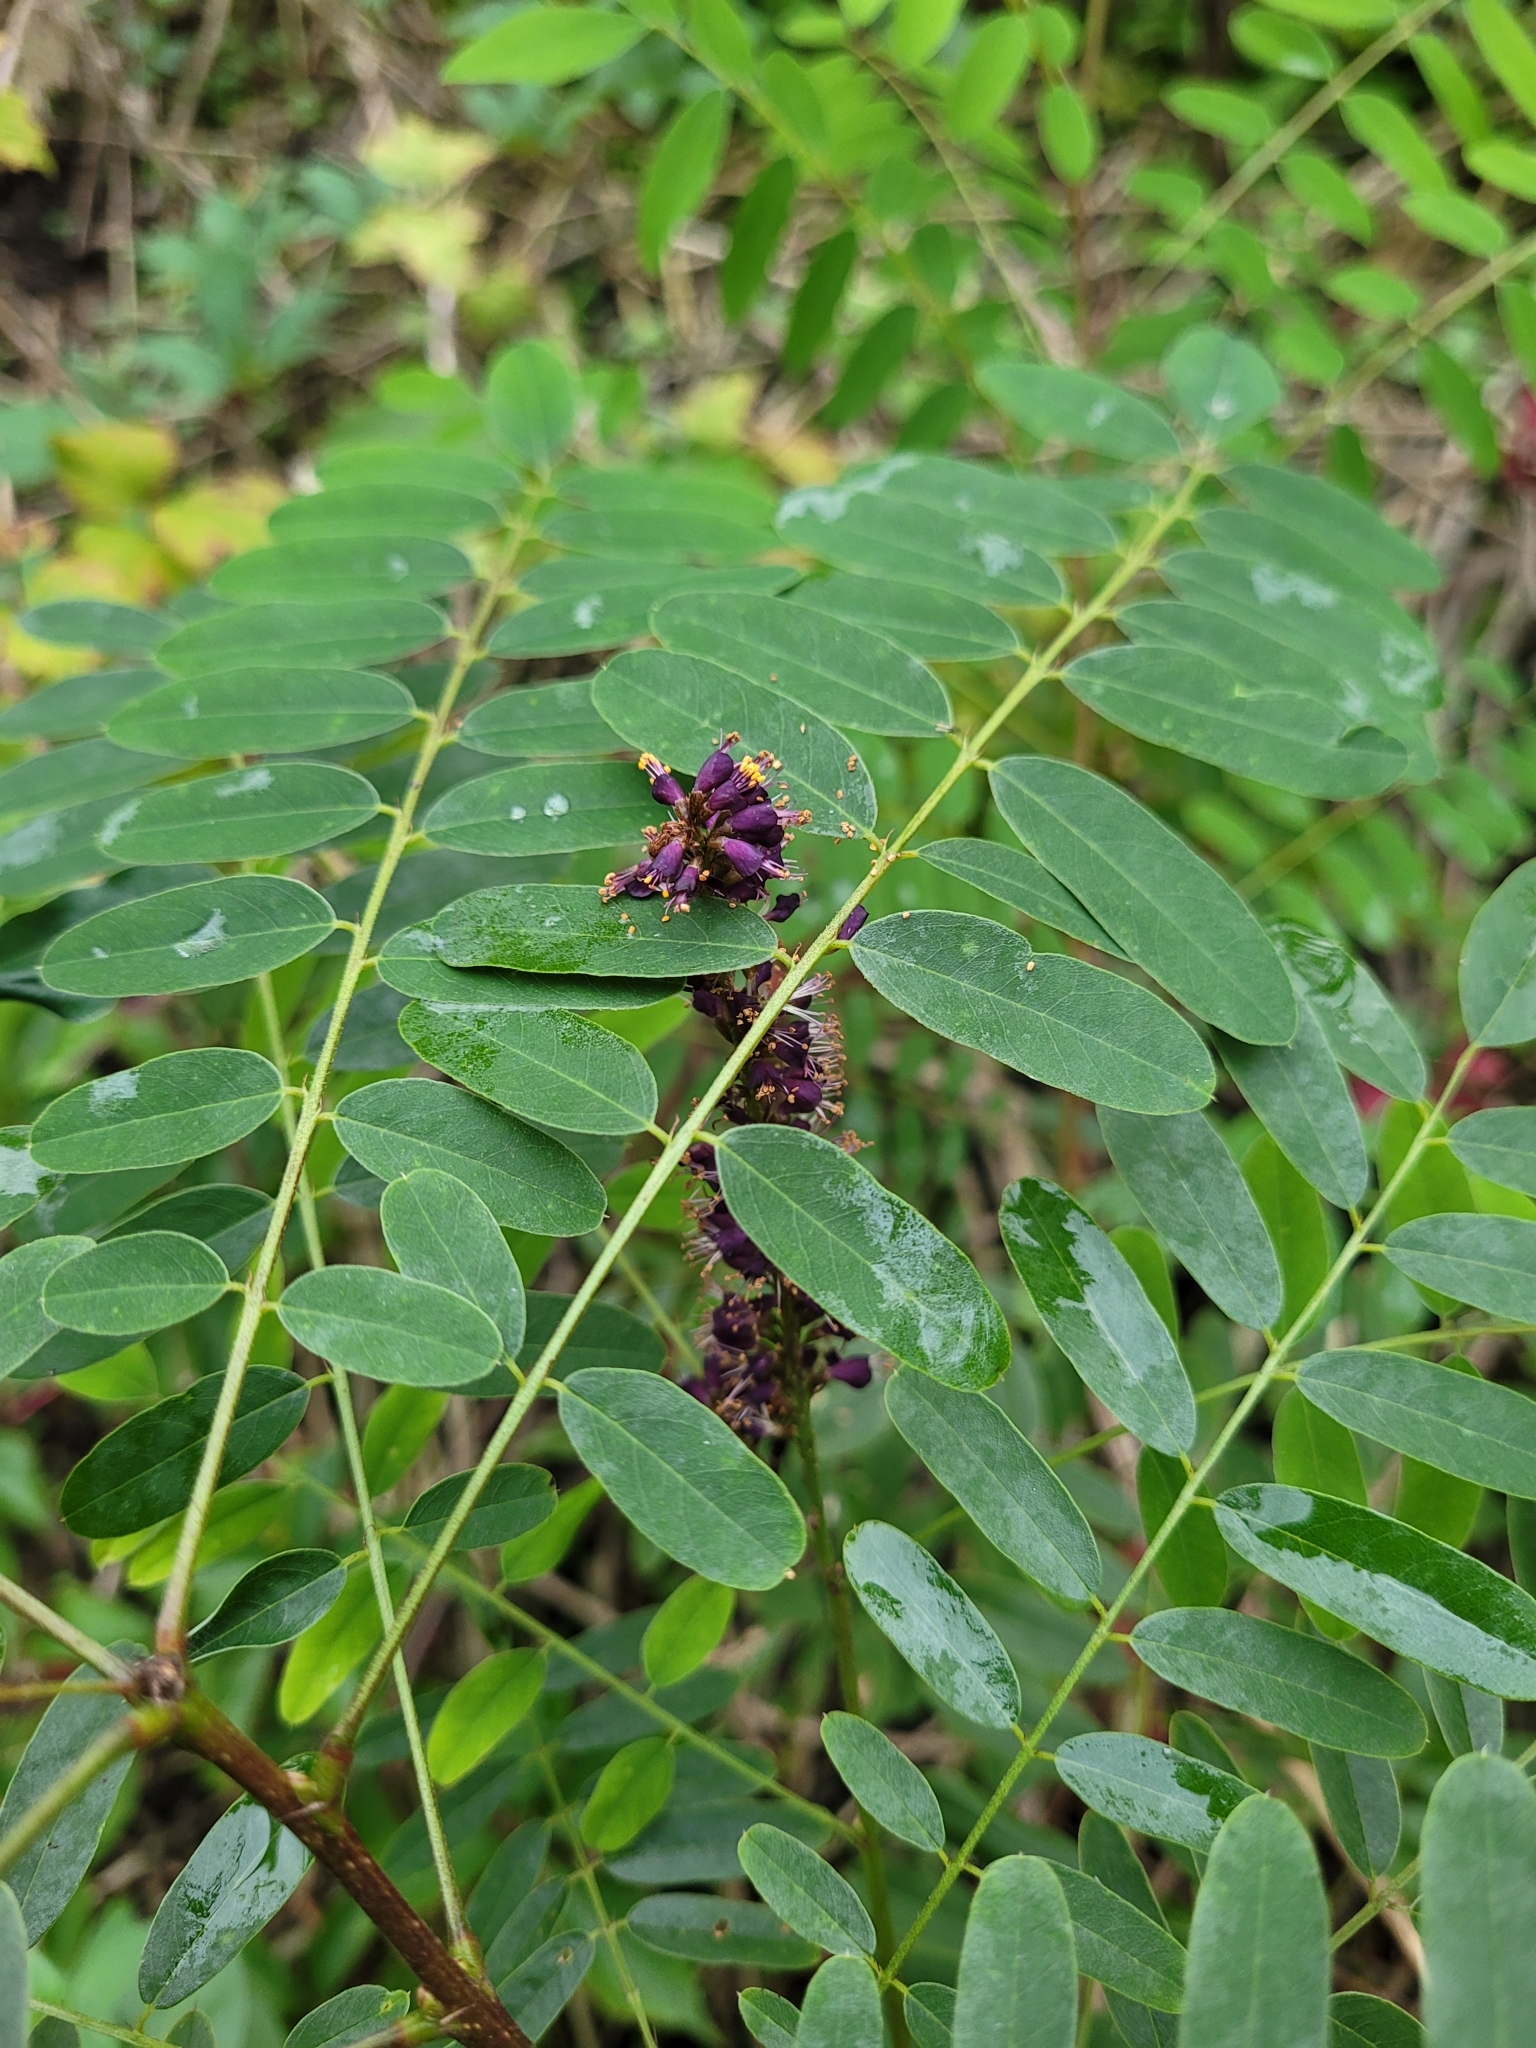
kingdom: Plantae
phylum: Tracheophyta
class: Magnoliopsida
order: Fabales
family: Fabaceae
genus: Amorpha
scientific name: Amorpha fruticosa
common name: False indigo
